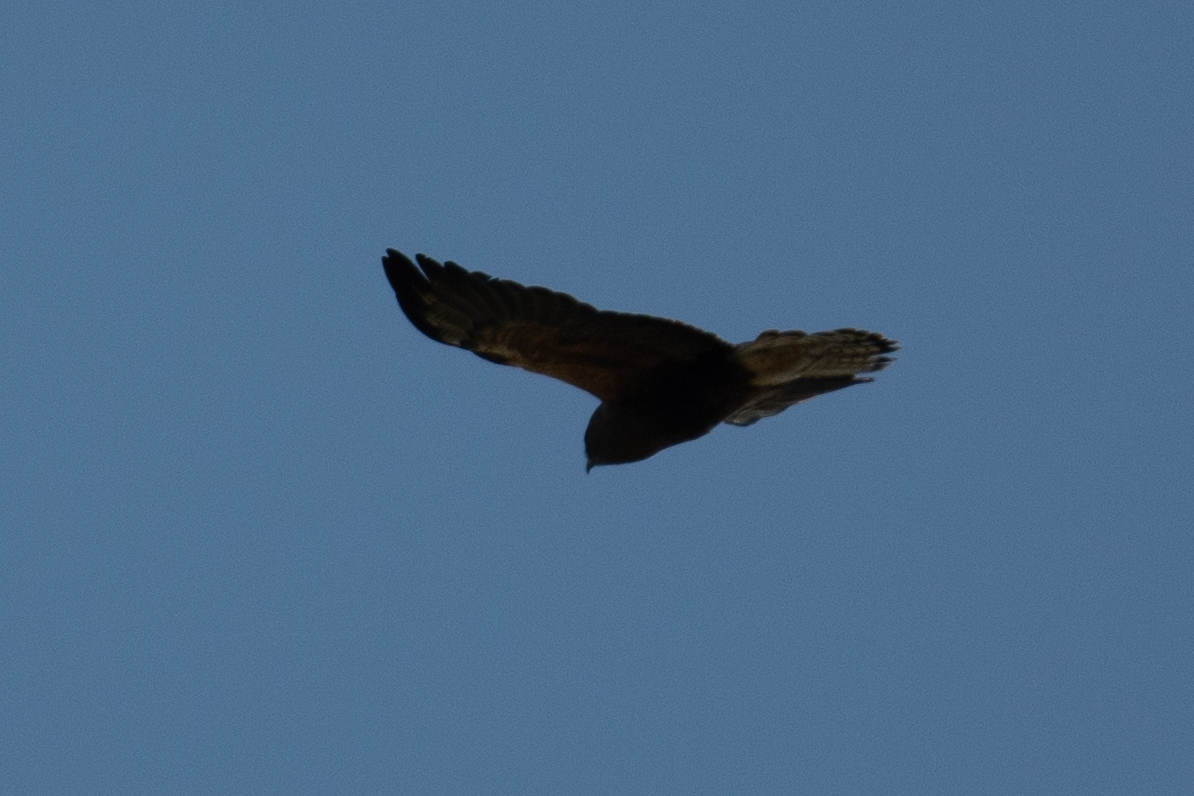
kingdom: Animalia
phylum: Chordata
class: Aves
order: Accipitriformes
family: Accipitridae
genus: Buteo
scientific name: Buteo swainsoni
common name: Swainson's hawk
